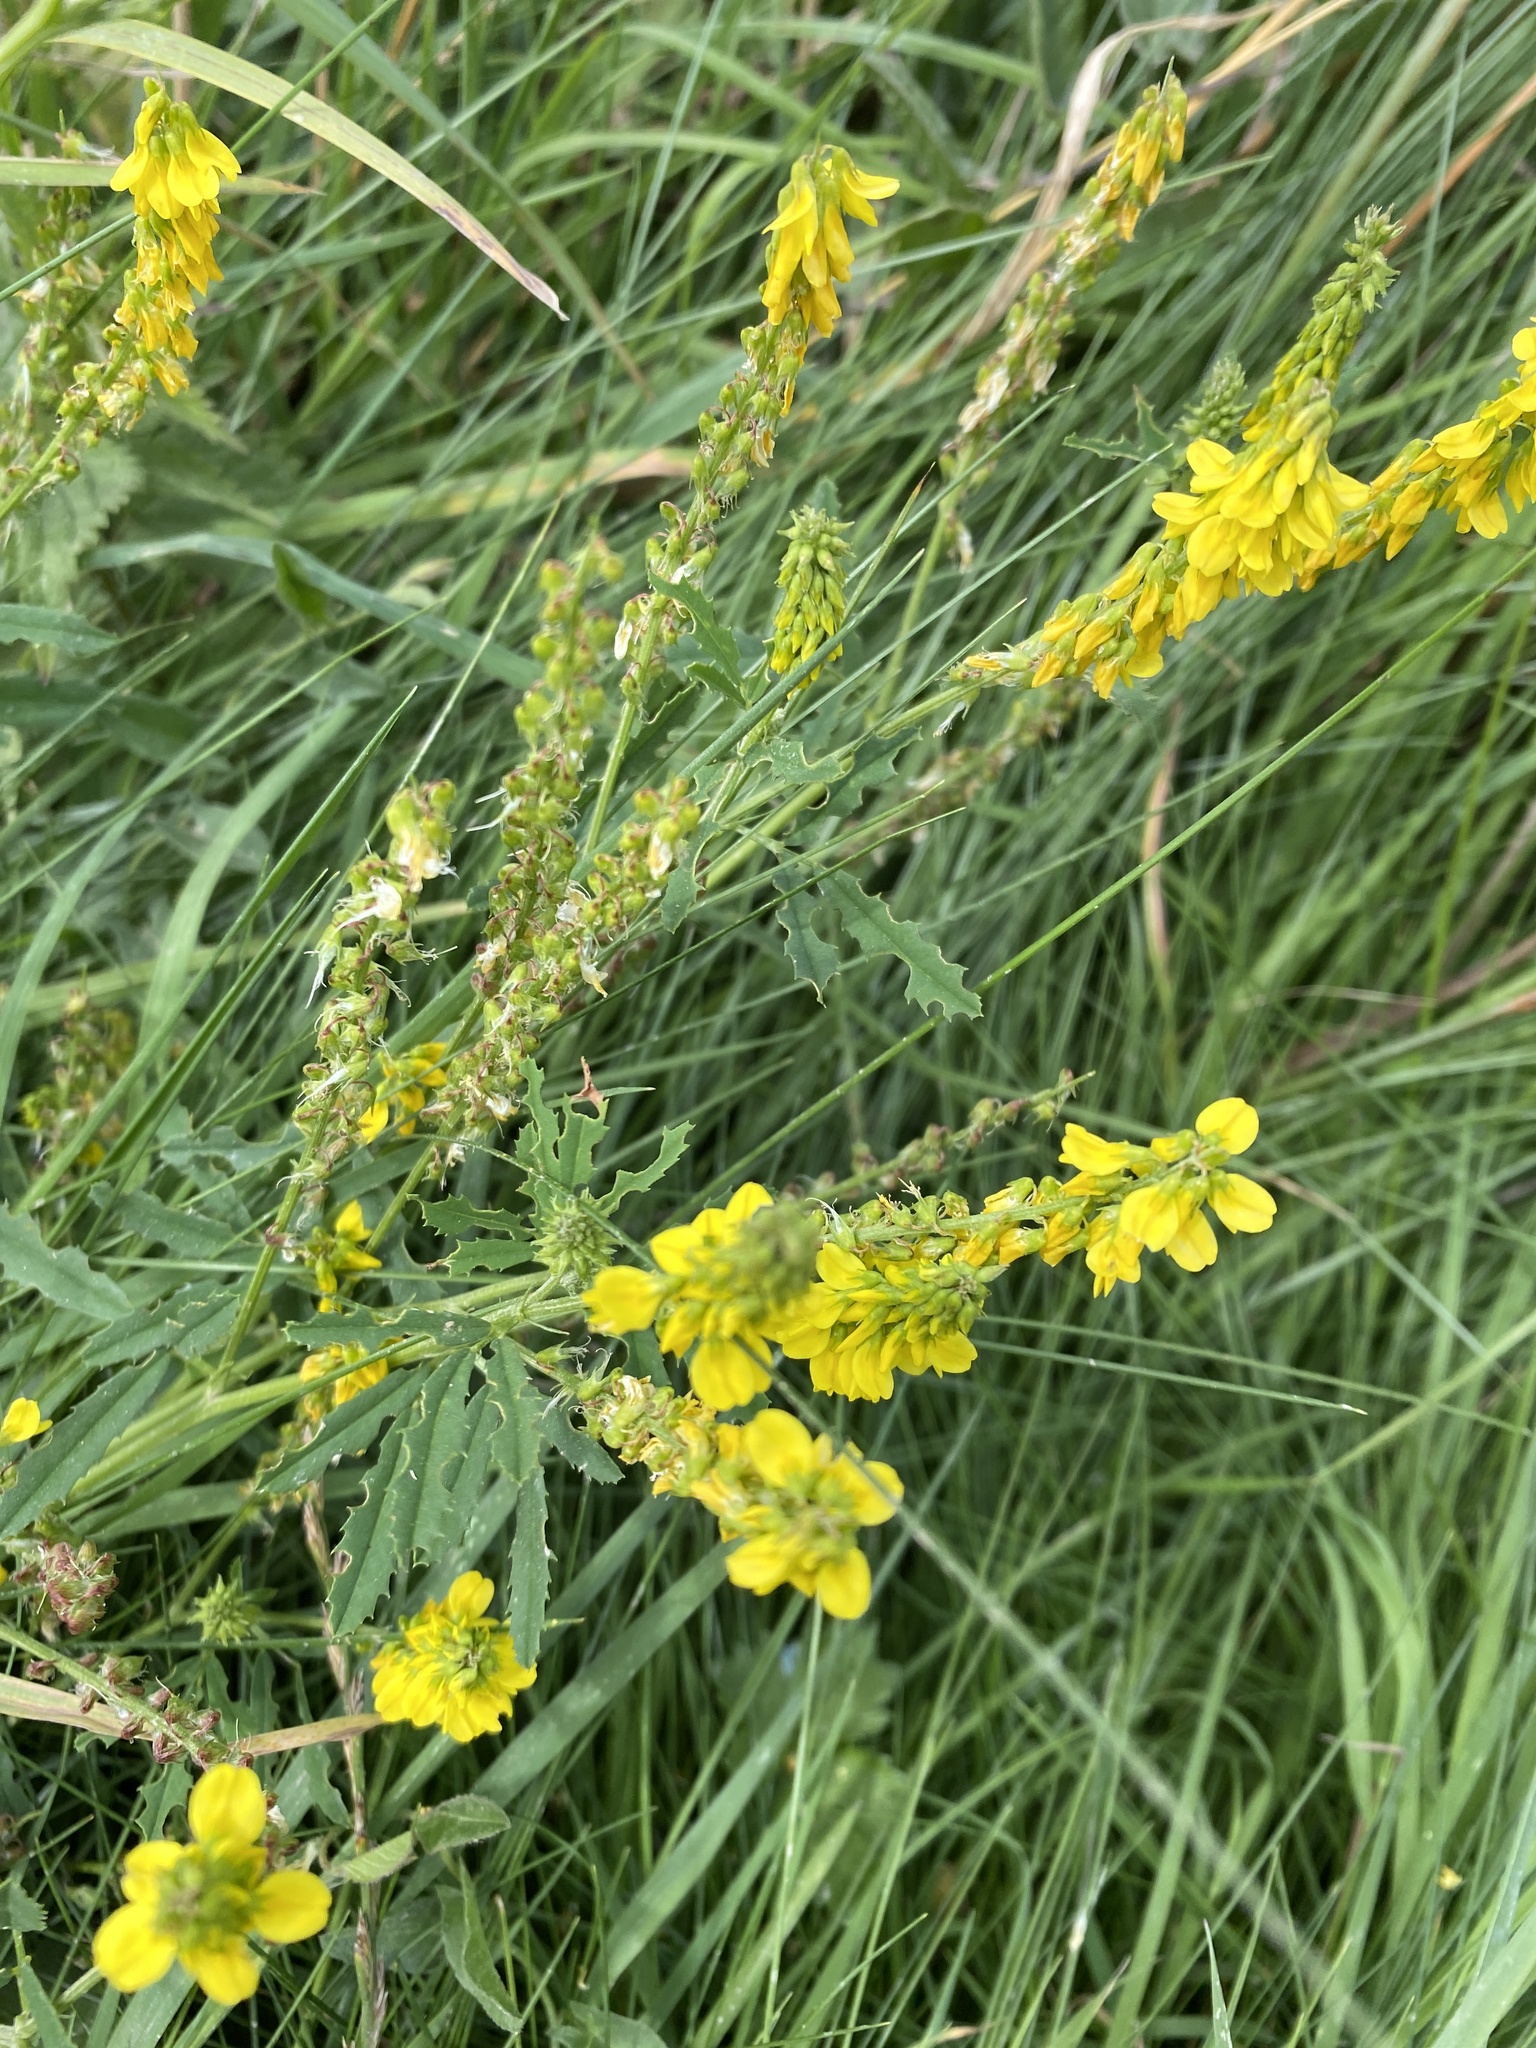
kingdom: Plantae
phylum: Tracheophyta
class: Magnoliopsida
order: Fabales
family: Fabaceae
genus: Melilotus
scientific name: Melilotus officinalis
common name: Sweetclover
